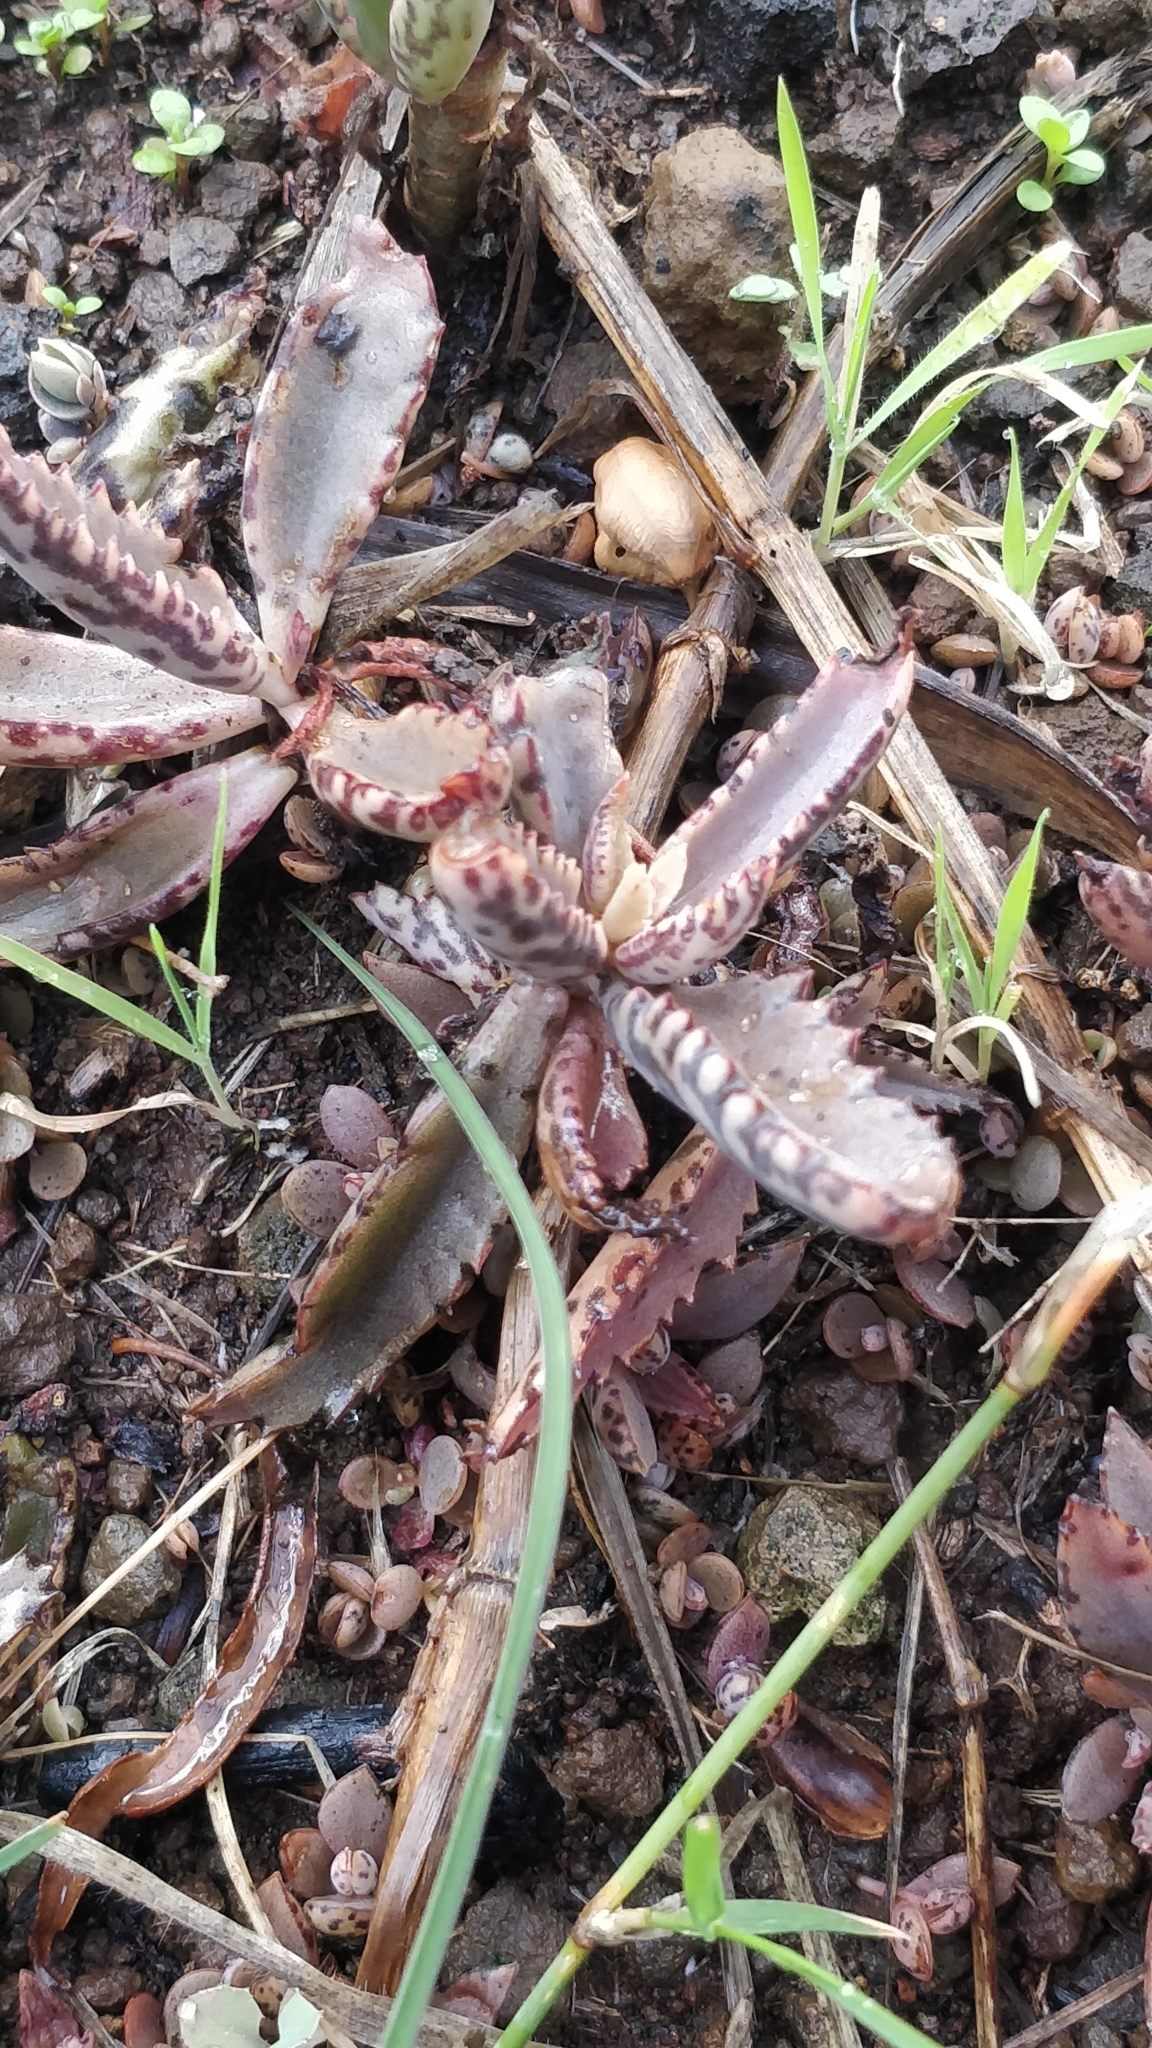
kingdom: Plantae
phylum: Tracheophyta
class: Magnoliopsida
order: Saxifragales
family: Crassulaceae
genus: Kalanchoe
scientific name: Kalanchoe houghtonii
